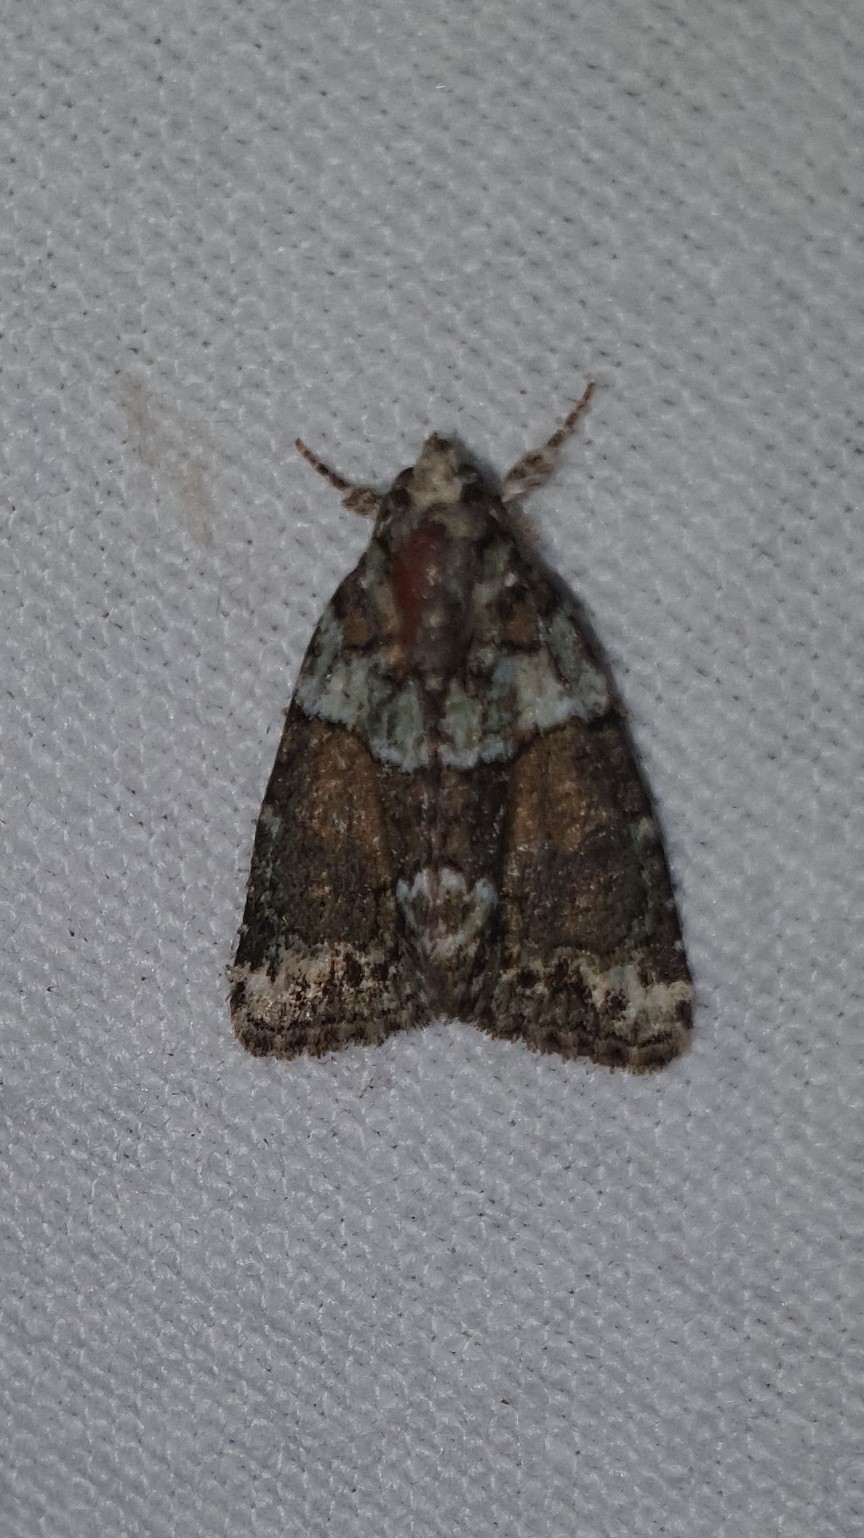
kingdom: Animalia
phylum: Arthropoda
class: Insecta
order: Lepidoptera
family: Noctuidae
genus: Cryphia
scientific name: Cryphia algae
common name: Tree-lichen beauty
